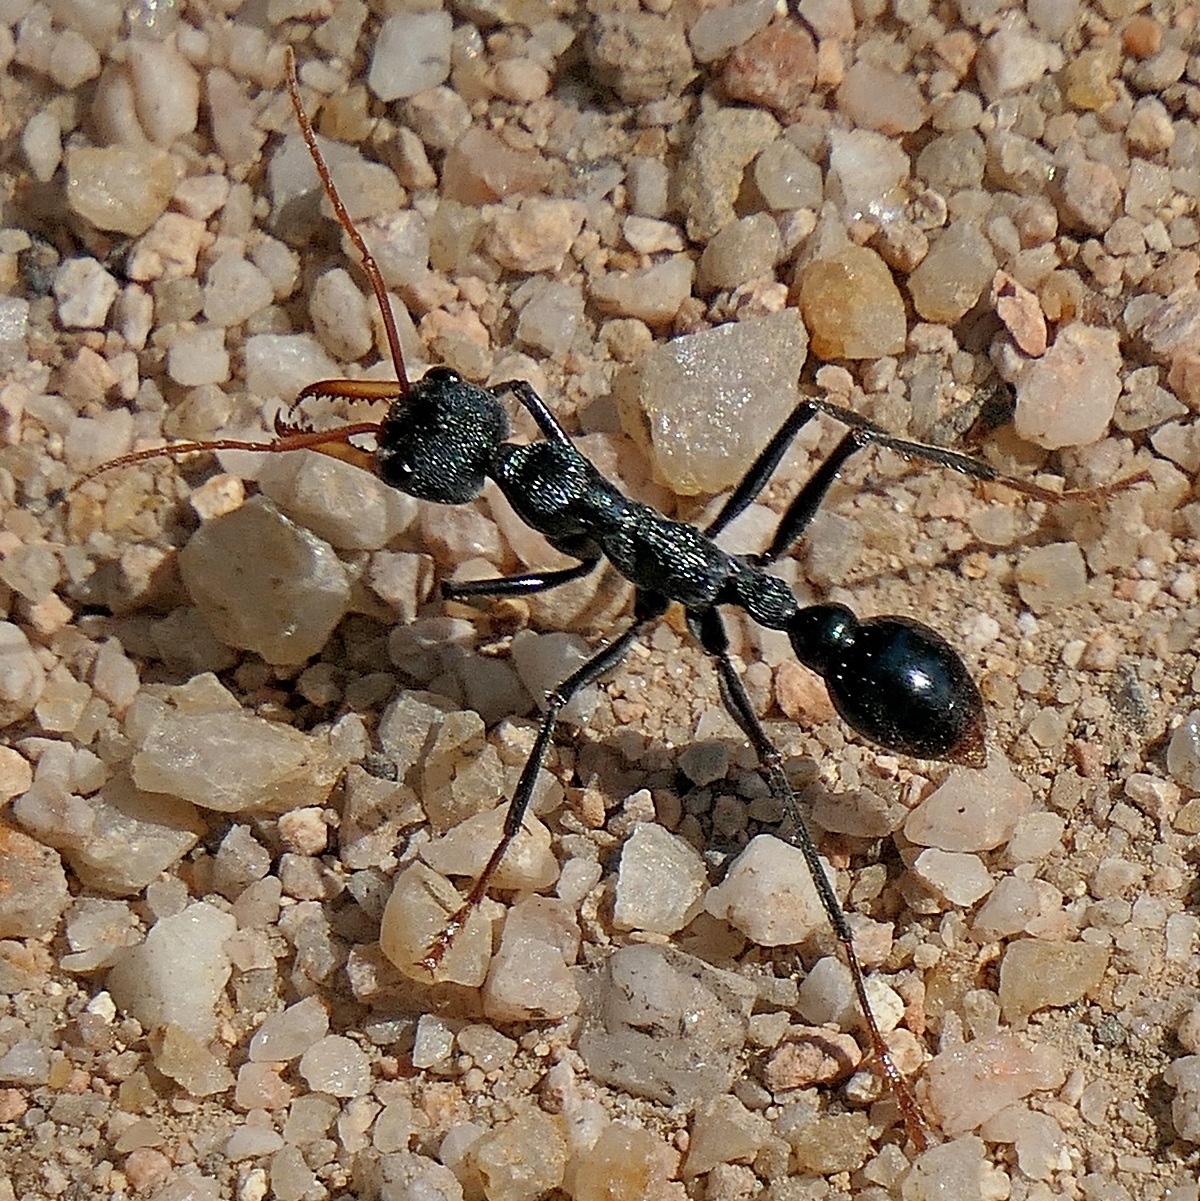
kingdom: Animalia
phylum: Arthropoda
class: Insecta
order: Hymenoptera
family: Formicidae
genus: Myrmecia
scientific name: Myrmecia tarsata
